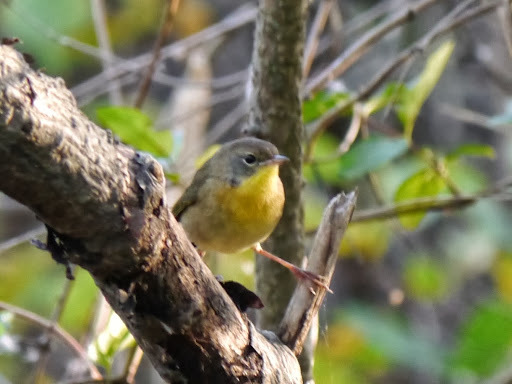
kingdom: Animalia
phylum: Chordata
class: Aves
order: Passeriformes
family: Parulidae
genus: Geothlypis
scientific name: Geothlypis trichas
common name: Common yellowthroat
